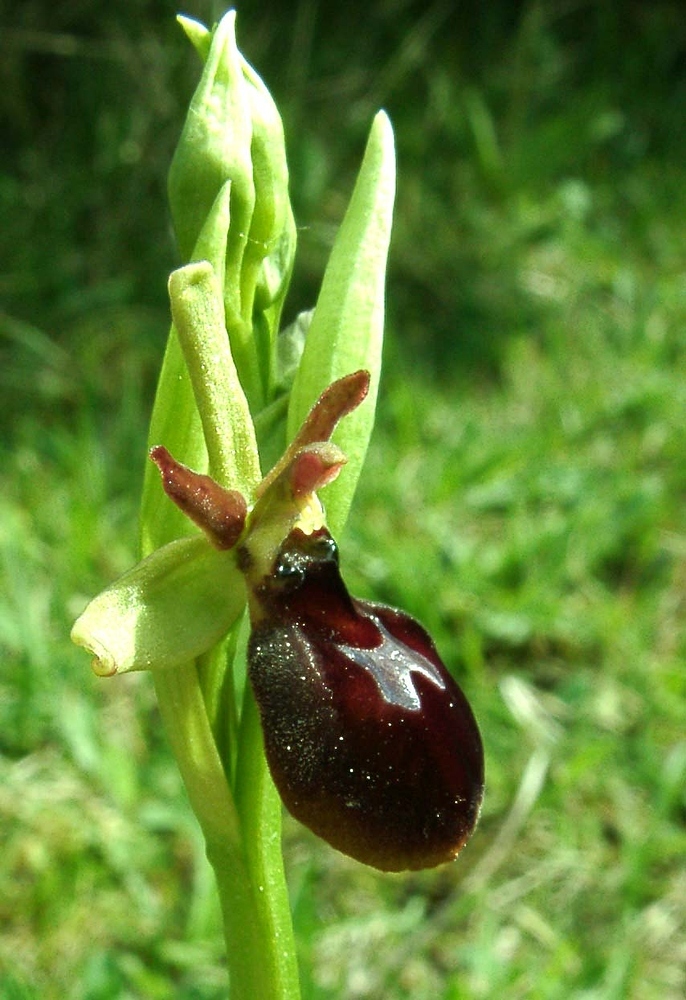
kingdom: Plantae
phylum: Tracheophyta
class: Liliopsida
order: Asparagales
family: Orchidaceae
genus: Ophrys
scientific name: Ophrys hybrida
